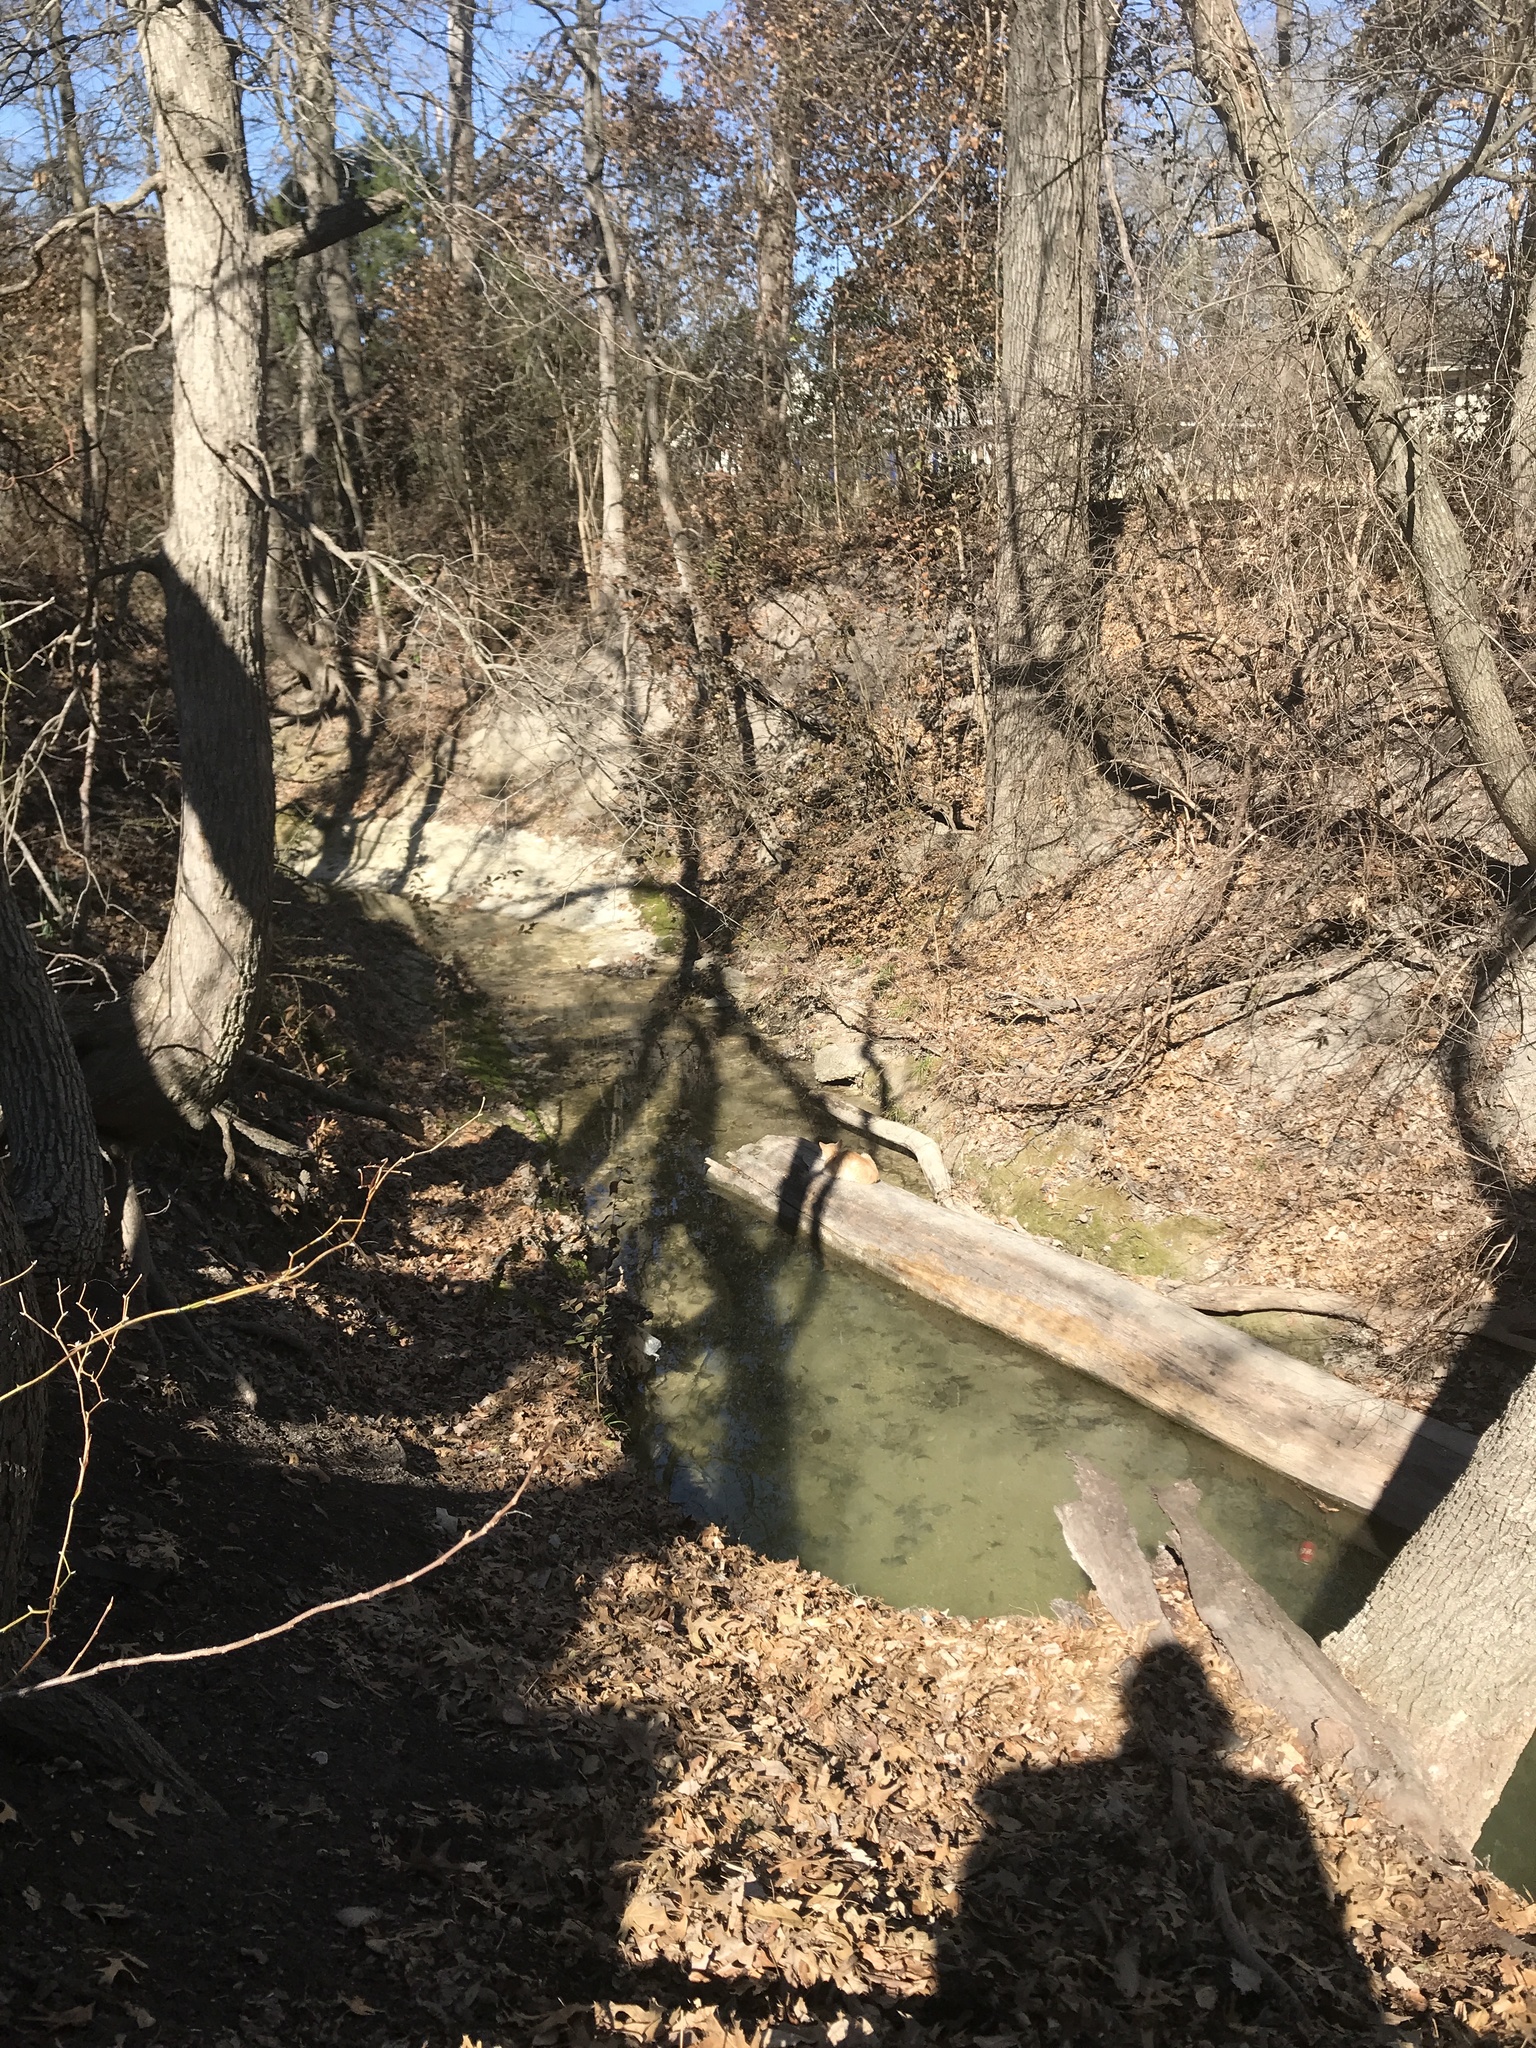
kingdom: Animalia
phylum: Chordata
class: Mammalia
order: Carnivora
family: Felidae
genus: Felis
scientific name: Felis catus
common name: Domestic cat
